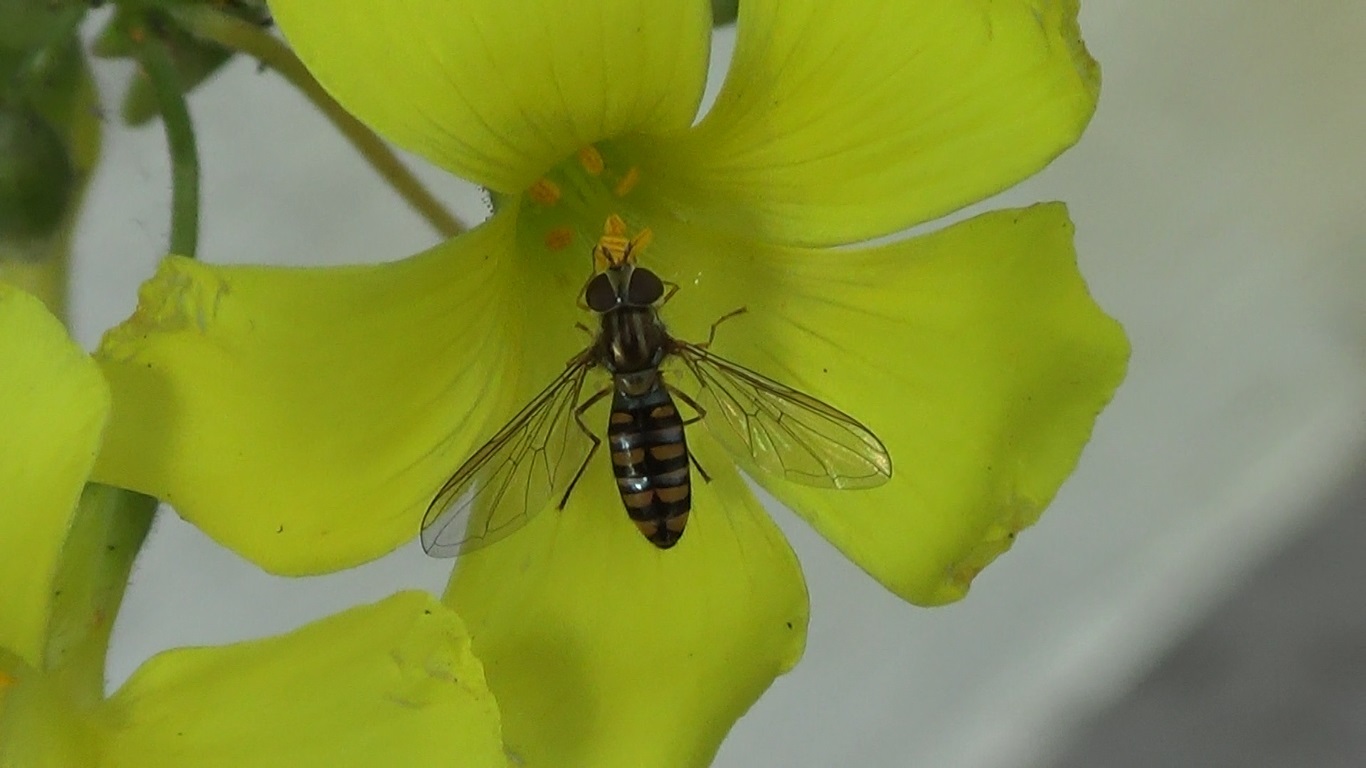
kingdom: Animalia
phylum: Arthropoda
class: Insecta
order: Diptera
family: Syrphidae
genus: Episyrphus
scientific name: Episyrphus balteatus
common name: Marmalade hoverfly
